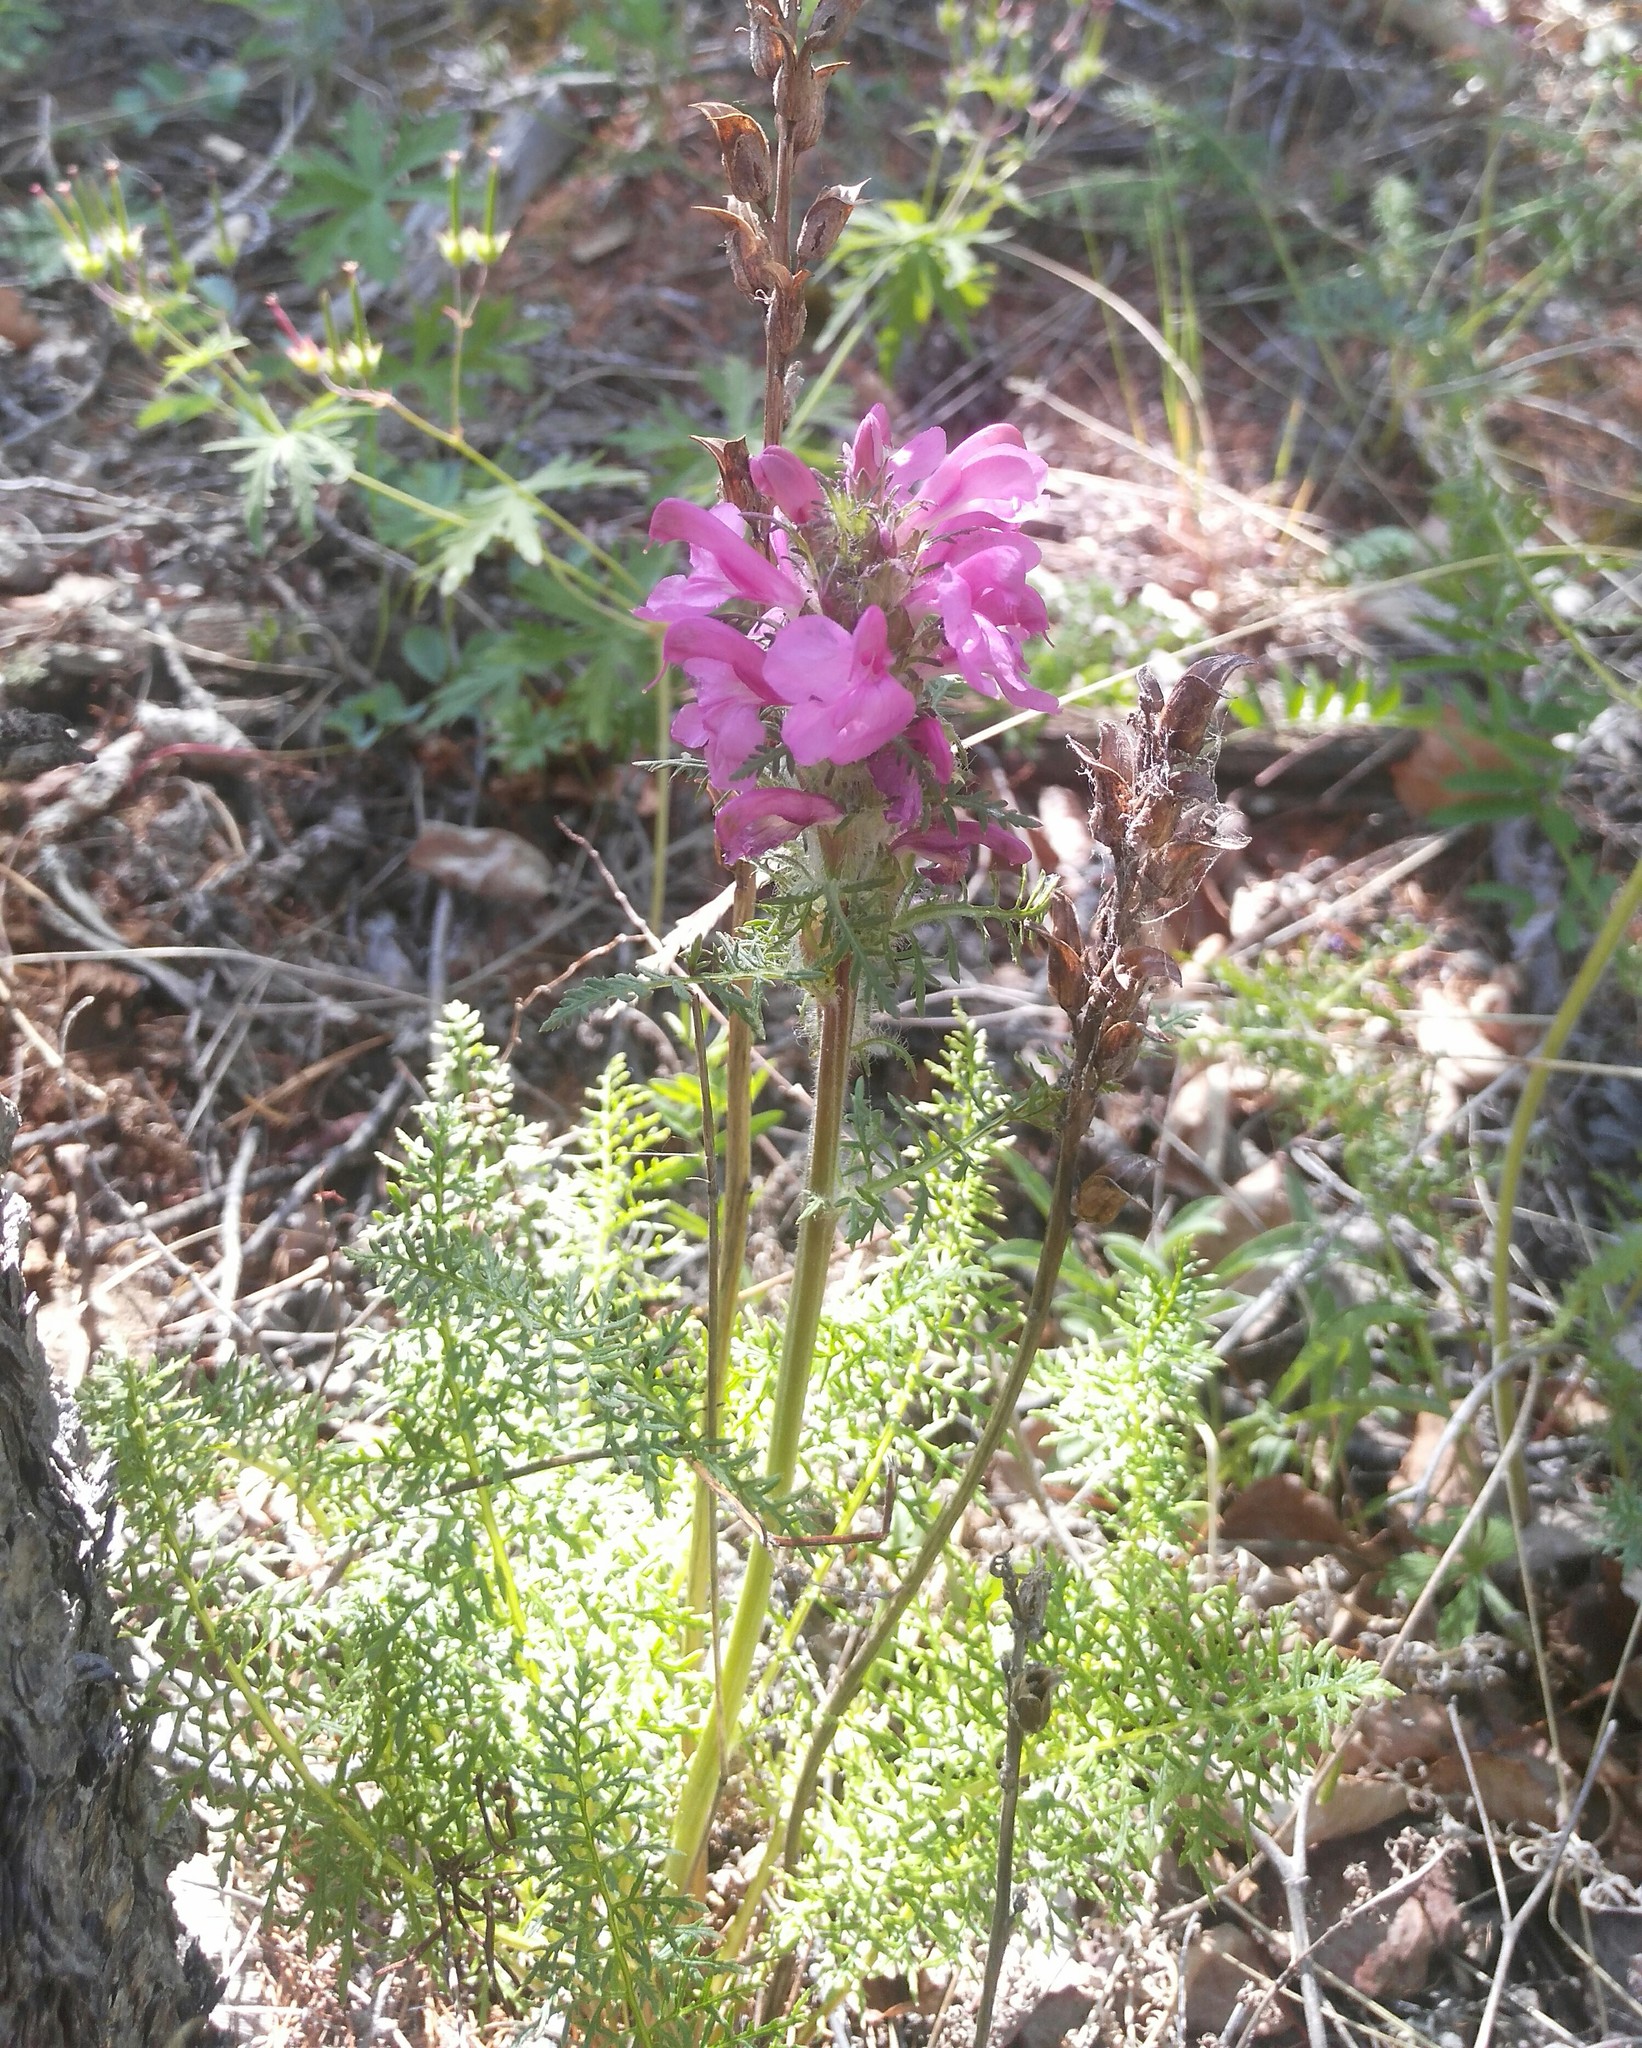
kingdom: Plantae
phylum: Tracheophyta
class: Magnoliopsida
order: Lamiales
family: Orobanchaceae
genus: Pedicularis
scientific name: Pedicularis rubens
